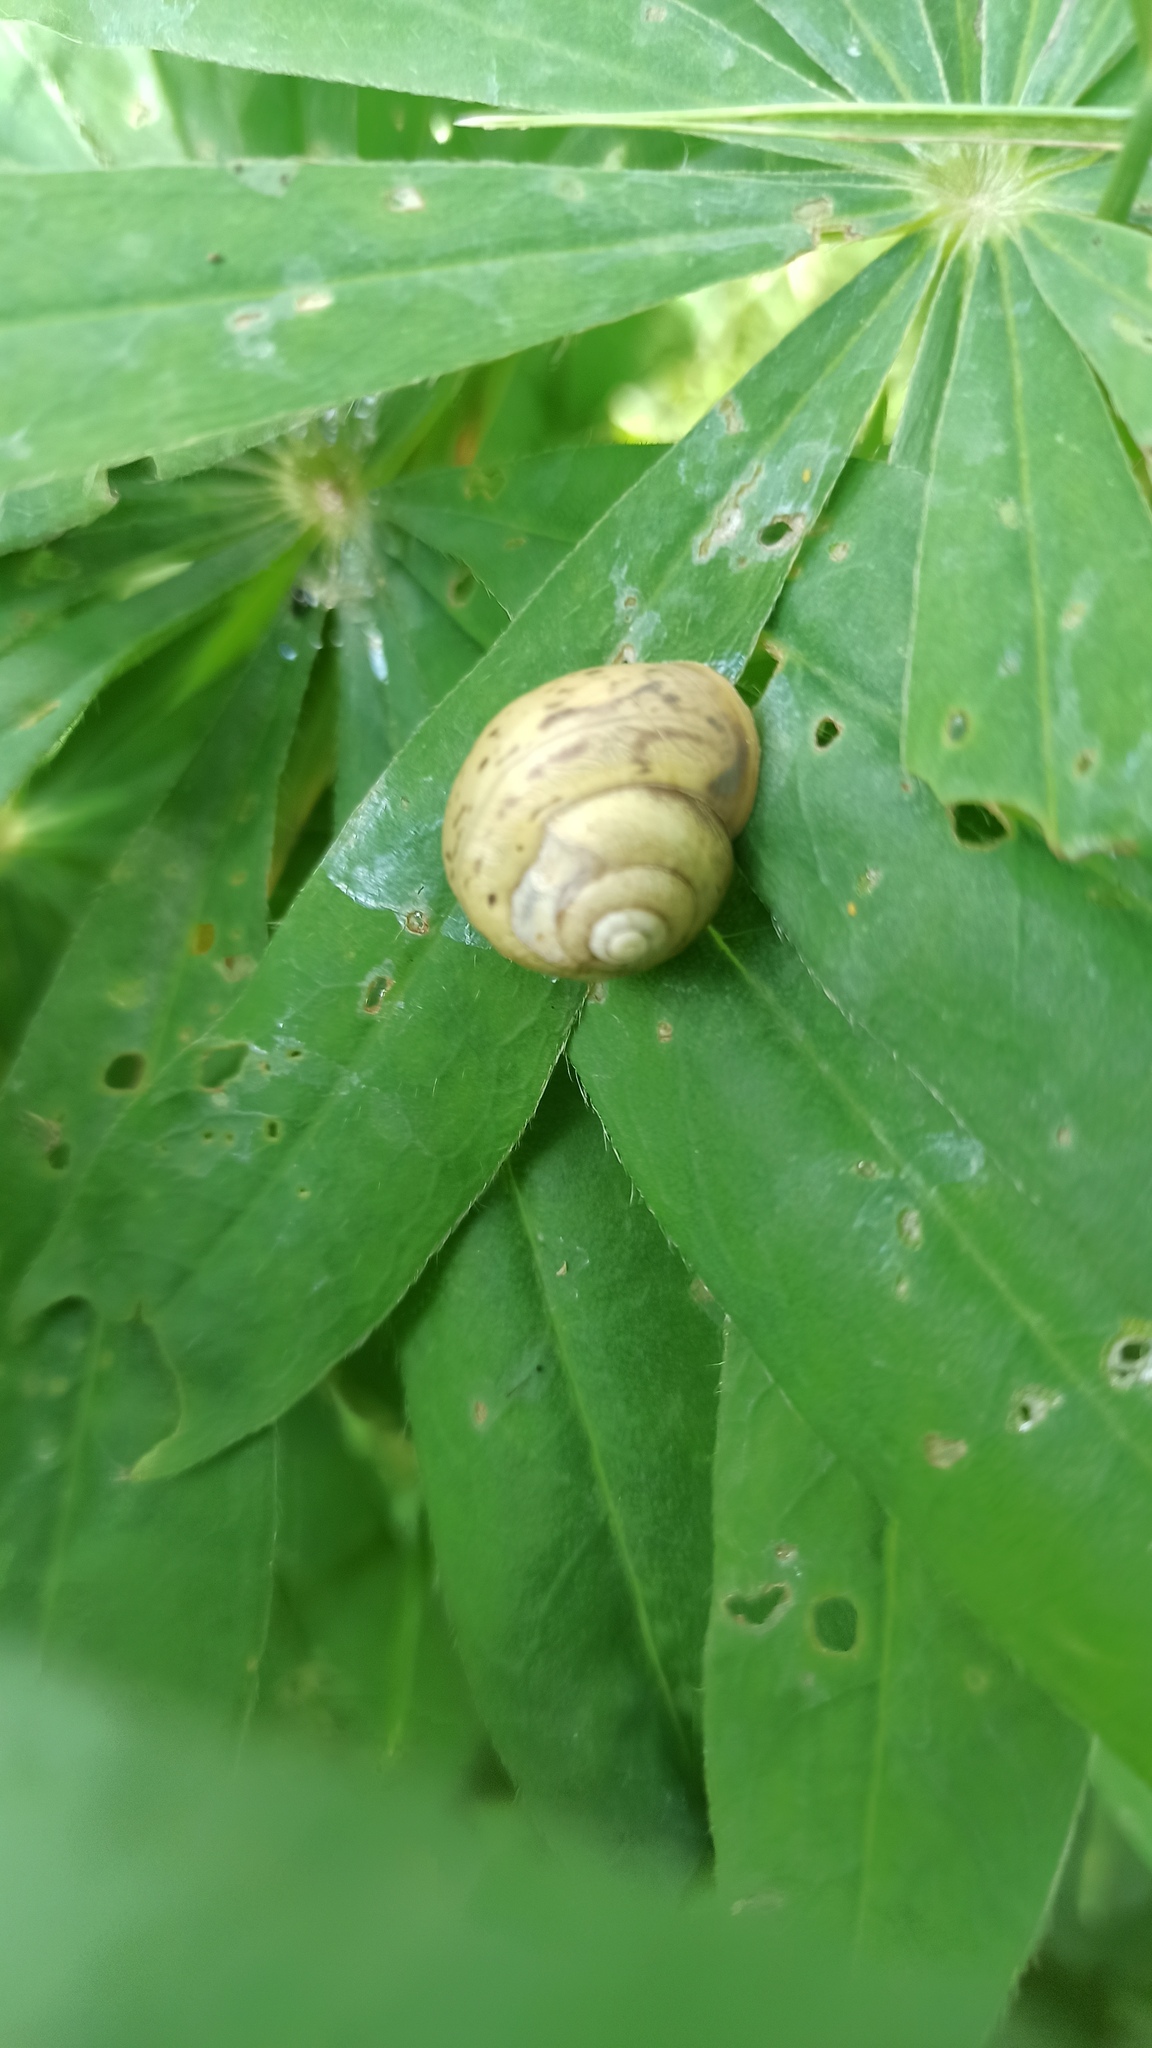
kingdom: Animalia
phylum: Mollusca
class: Gastropoda
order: Stylommatophora
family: Camaenidae
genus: Fruticicola
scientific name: Fruticicola fruticum
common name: Bush snail
